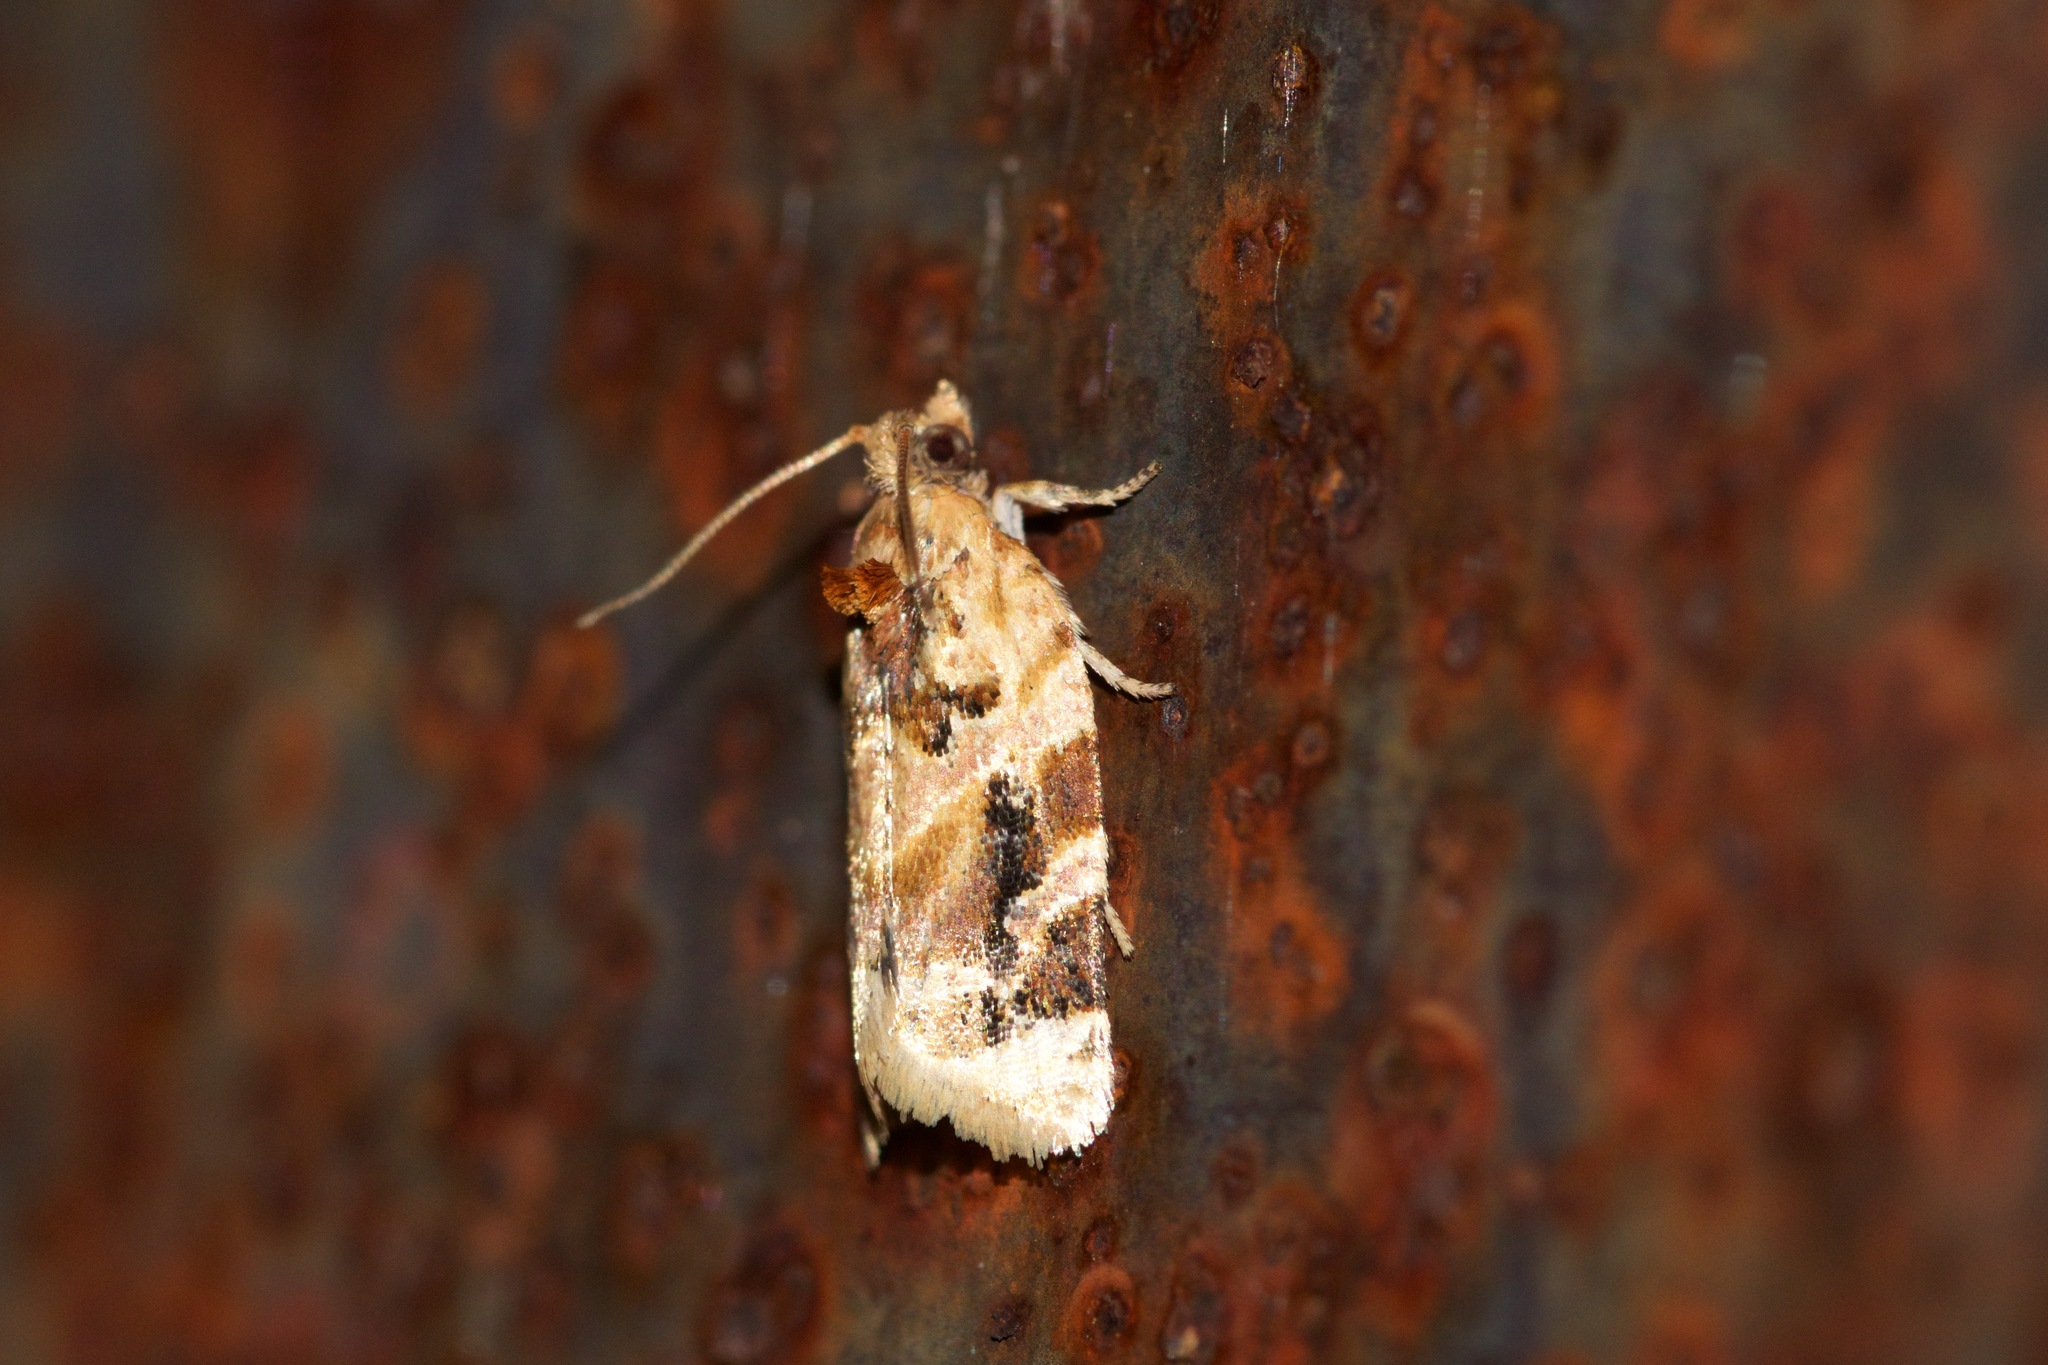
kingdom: Animalia
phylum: Arthropoda
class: Insecta
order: Lepidoptera
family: Tortricidae
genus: Argyrotaenia
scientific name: Argyrotaenia velutinana
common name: Red-banded leafroller moth
